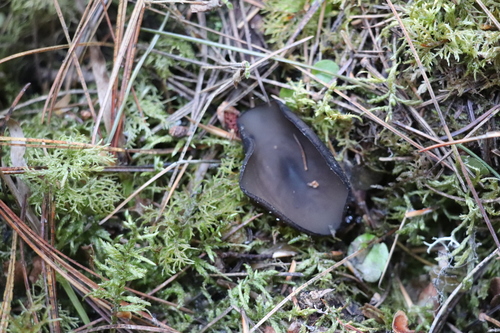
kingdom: Fungi
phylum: Ascomycota
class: Pezizomycetes
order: Pezizales
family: Sarcosomataceae
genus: Pseudoplectania
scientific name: Pseudoplectania melaena
